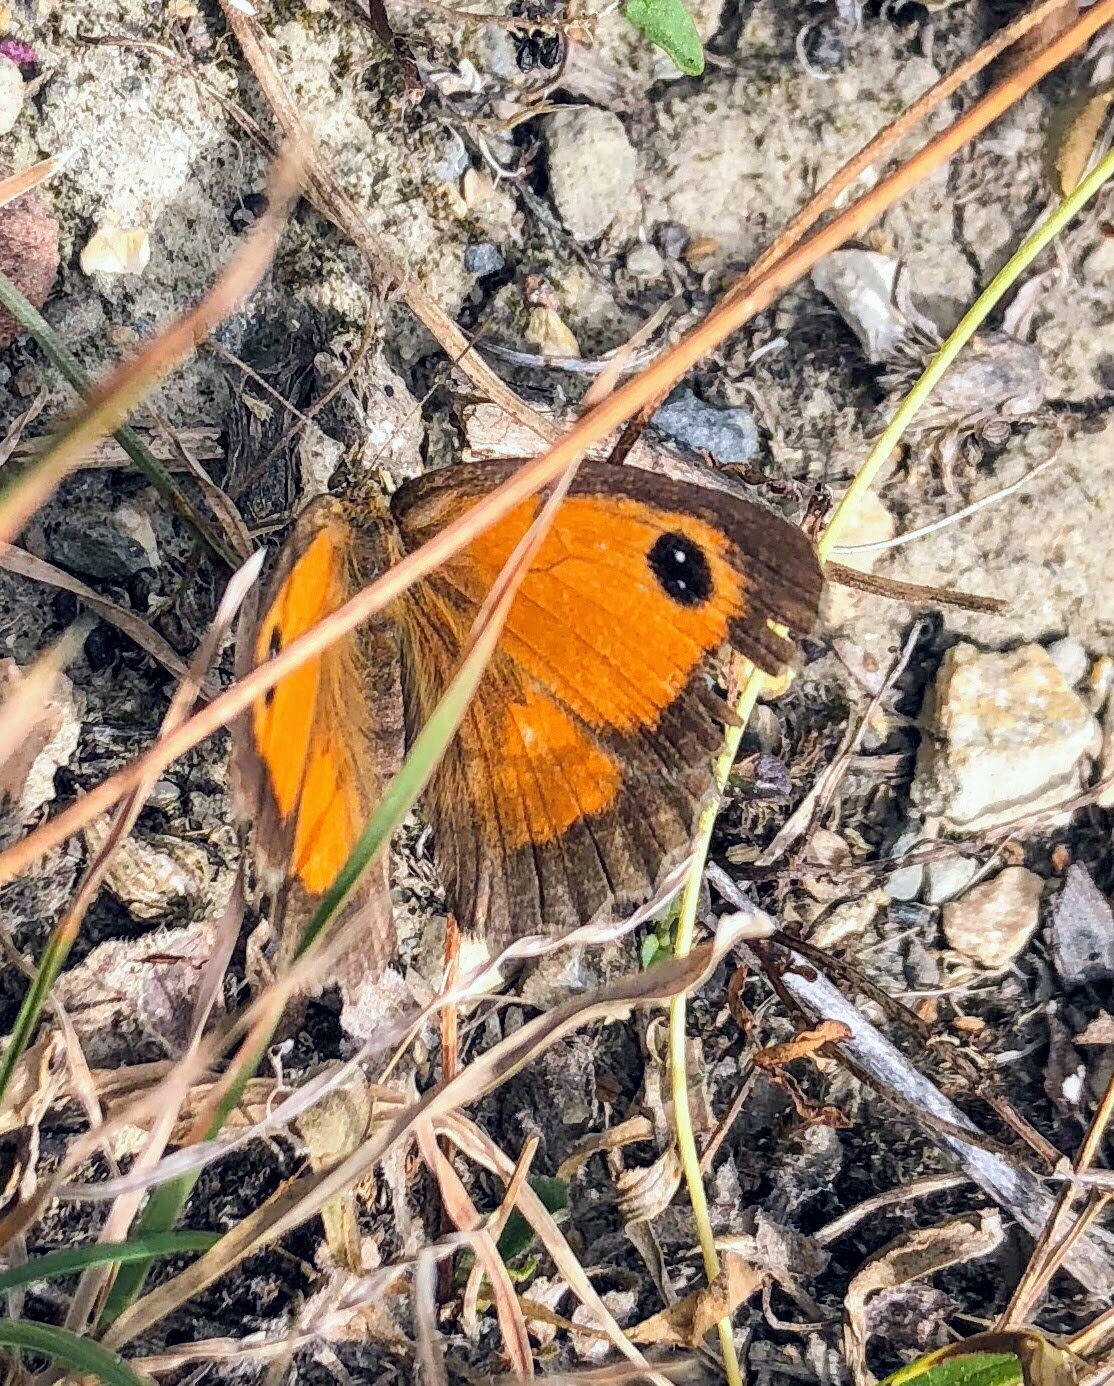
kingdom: Animalia
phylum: Arthropoda
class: Insecta
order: Lepidoptera
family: Nymphalidae
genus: Pyronia
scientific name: Pyronia tithonus
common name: Gatekeeper
